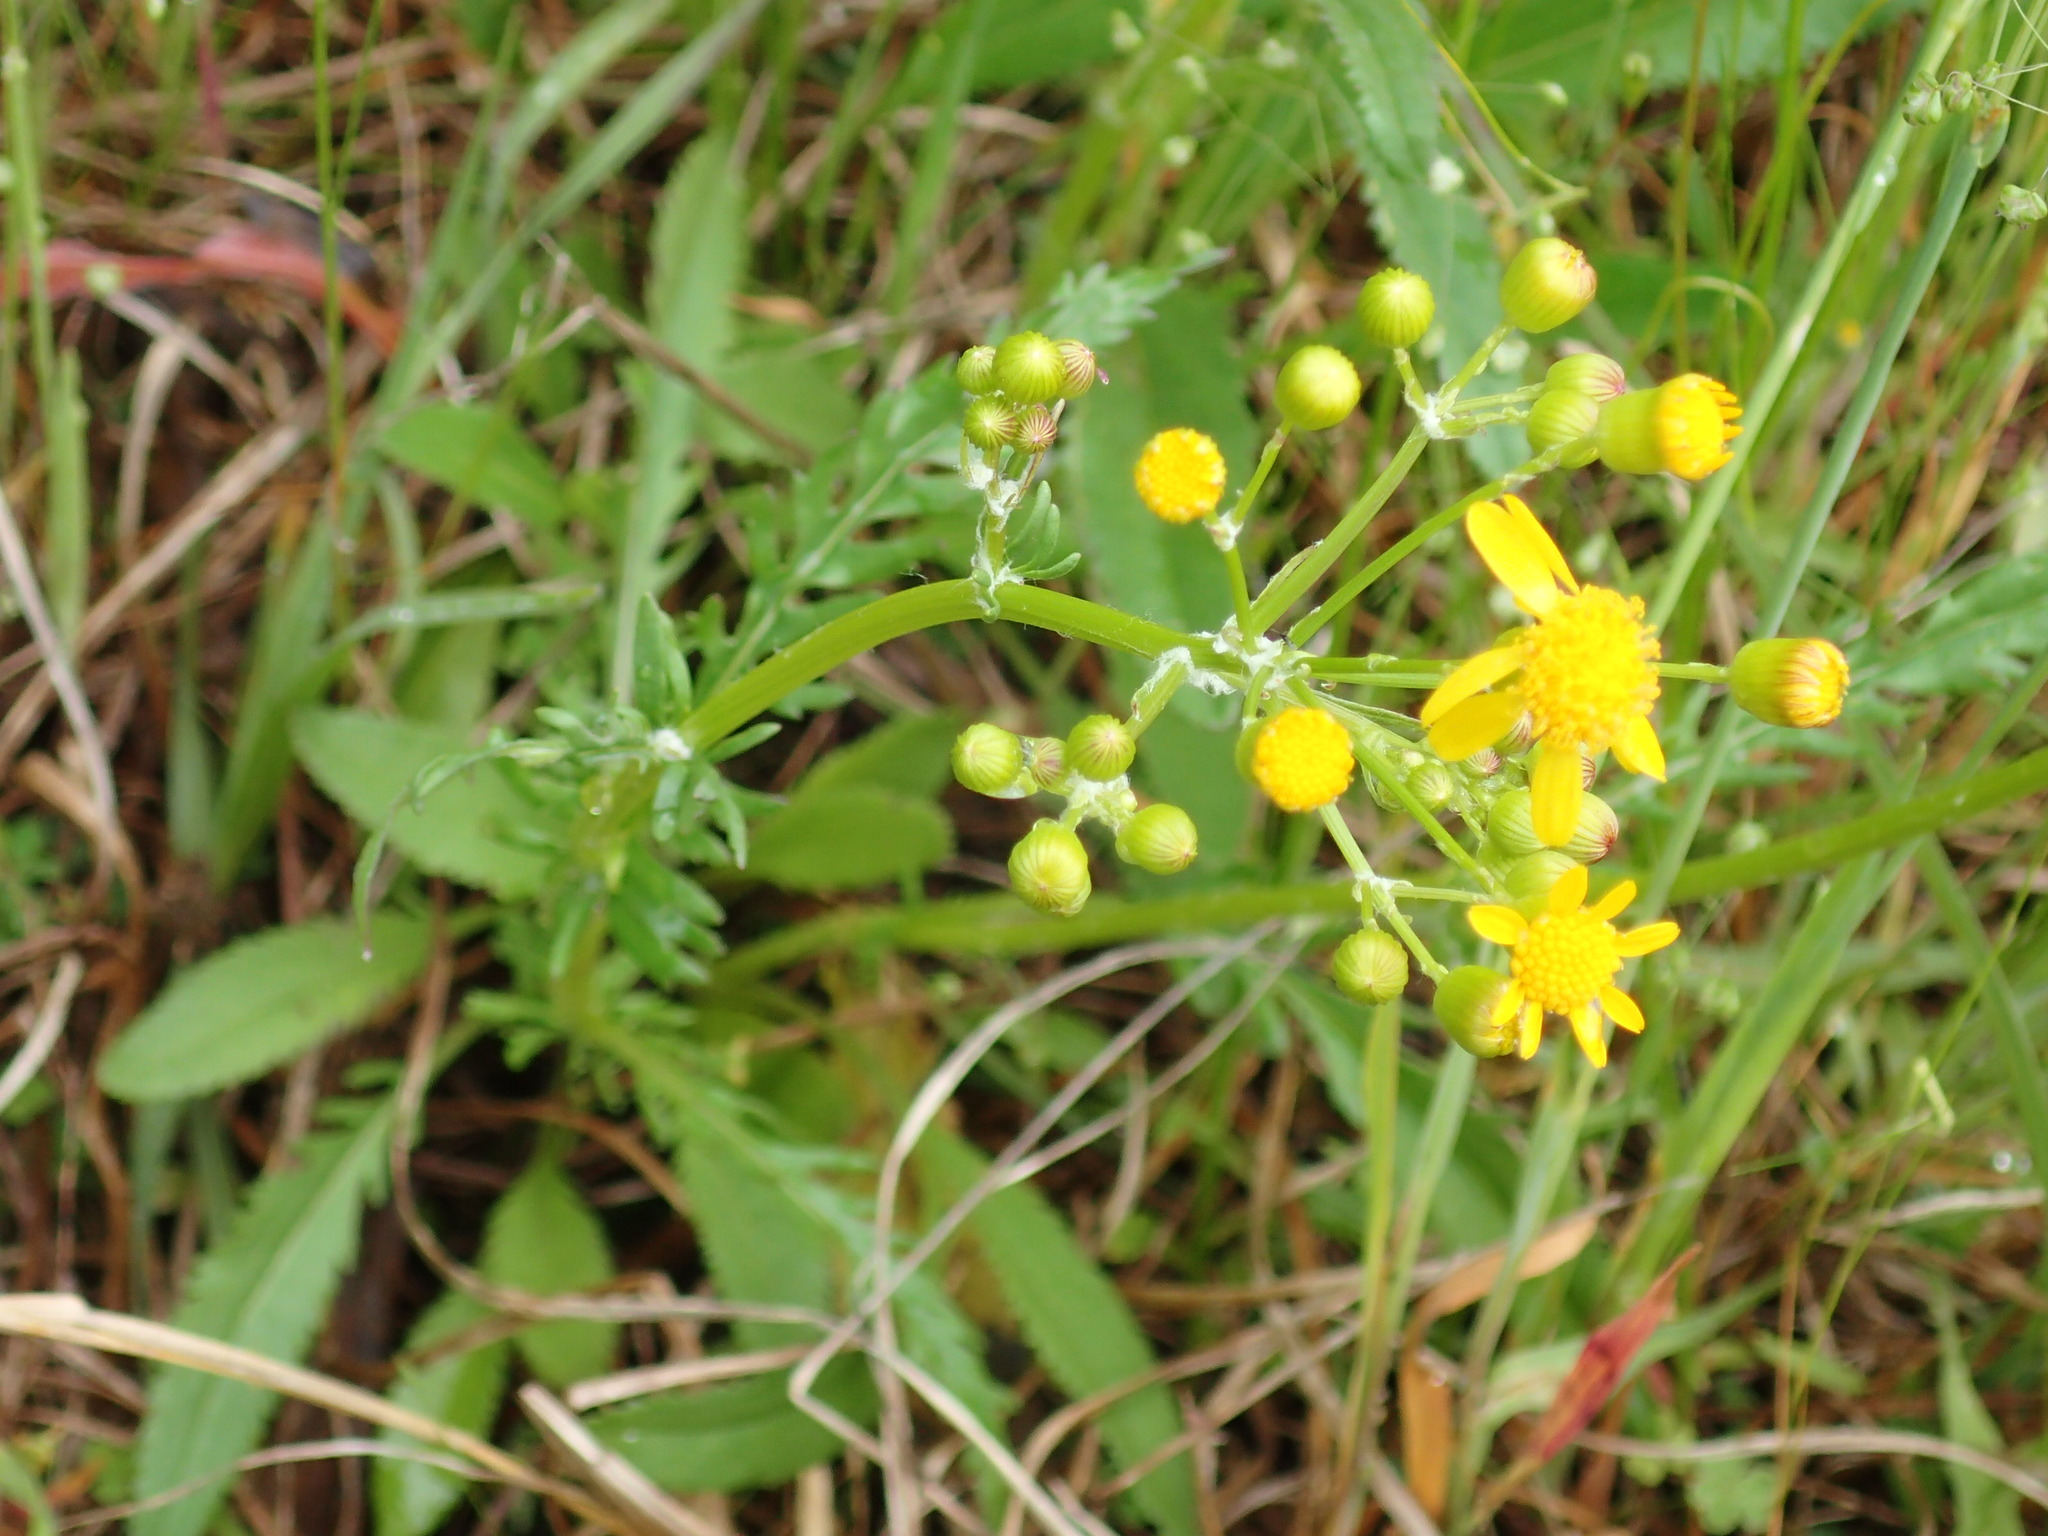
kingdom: Plantae
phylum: Tracheophyta
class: Magnoliopsida
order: Asterales
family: Asteraceae
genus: Packera
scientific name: Packera anonyma
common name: Small ragwort
